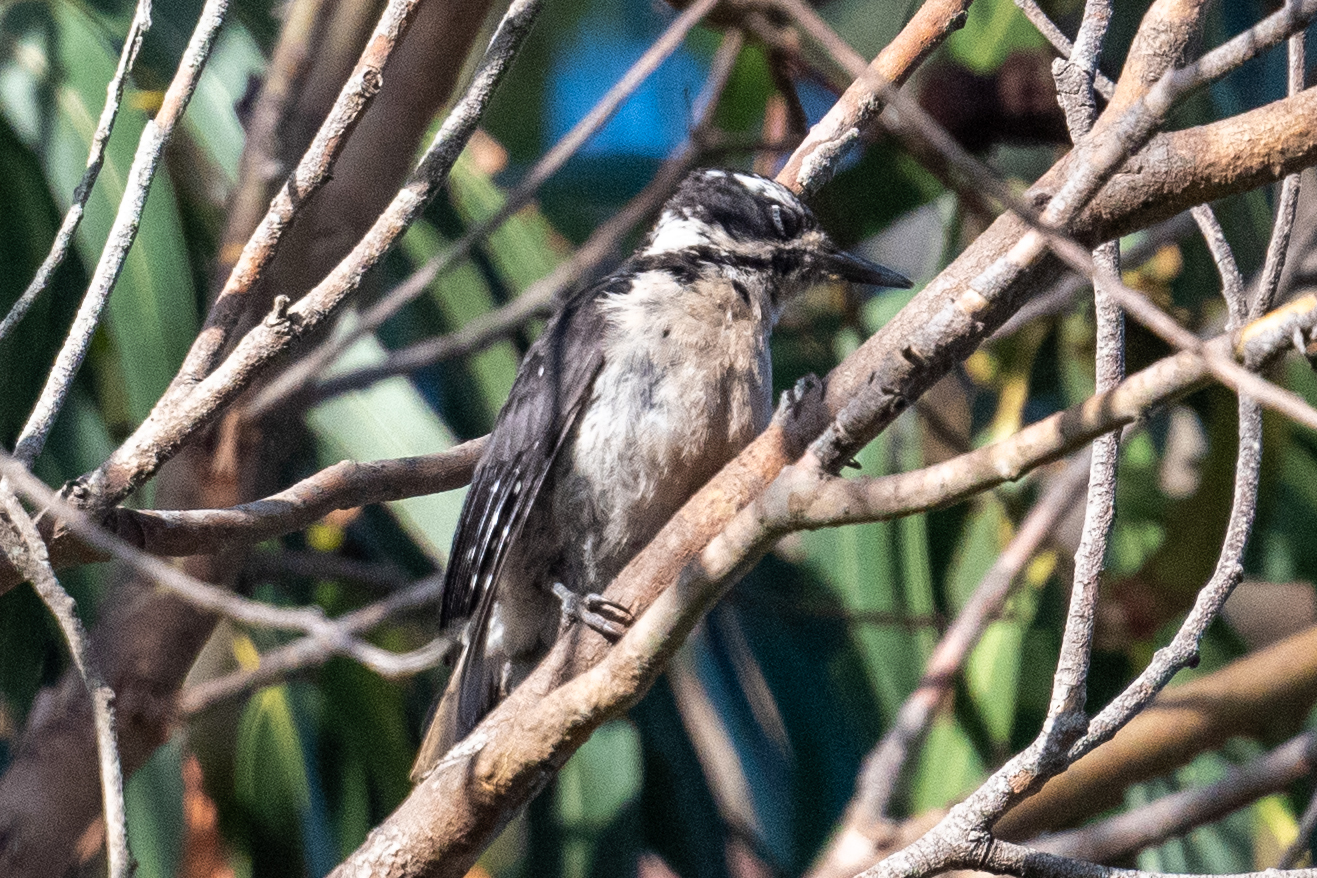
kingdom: Animalia
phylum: Chordata
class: Aves
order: Piciformes
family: Picidae
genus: Leuconotopicus
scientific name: Leuconotopicus villosus
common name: Hairy woodpecker
